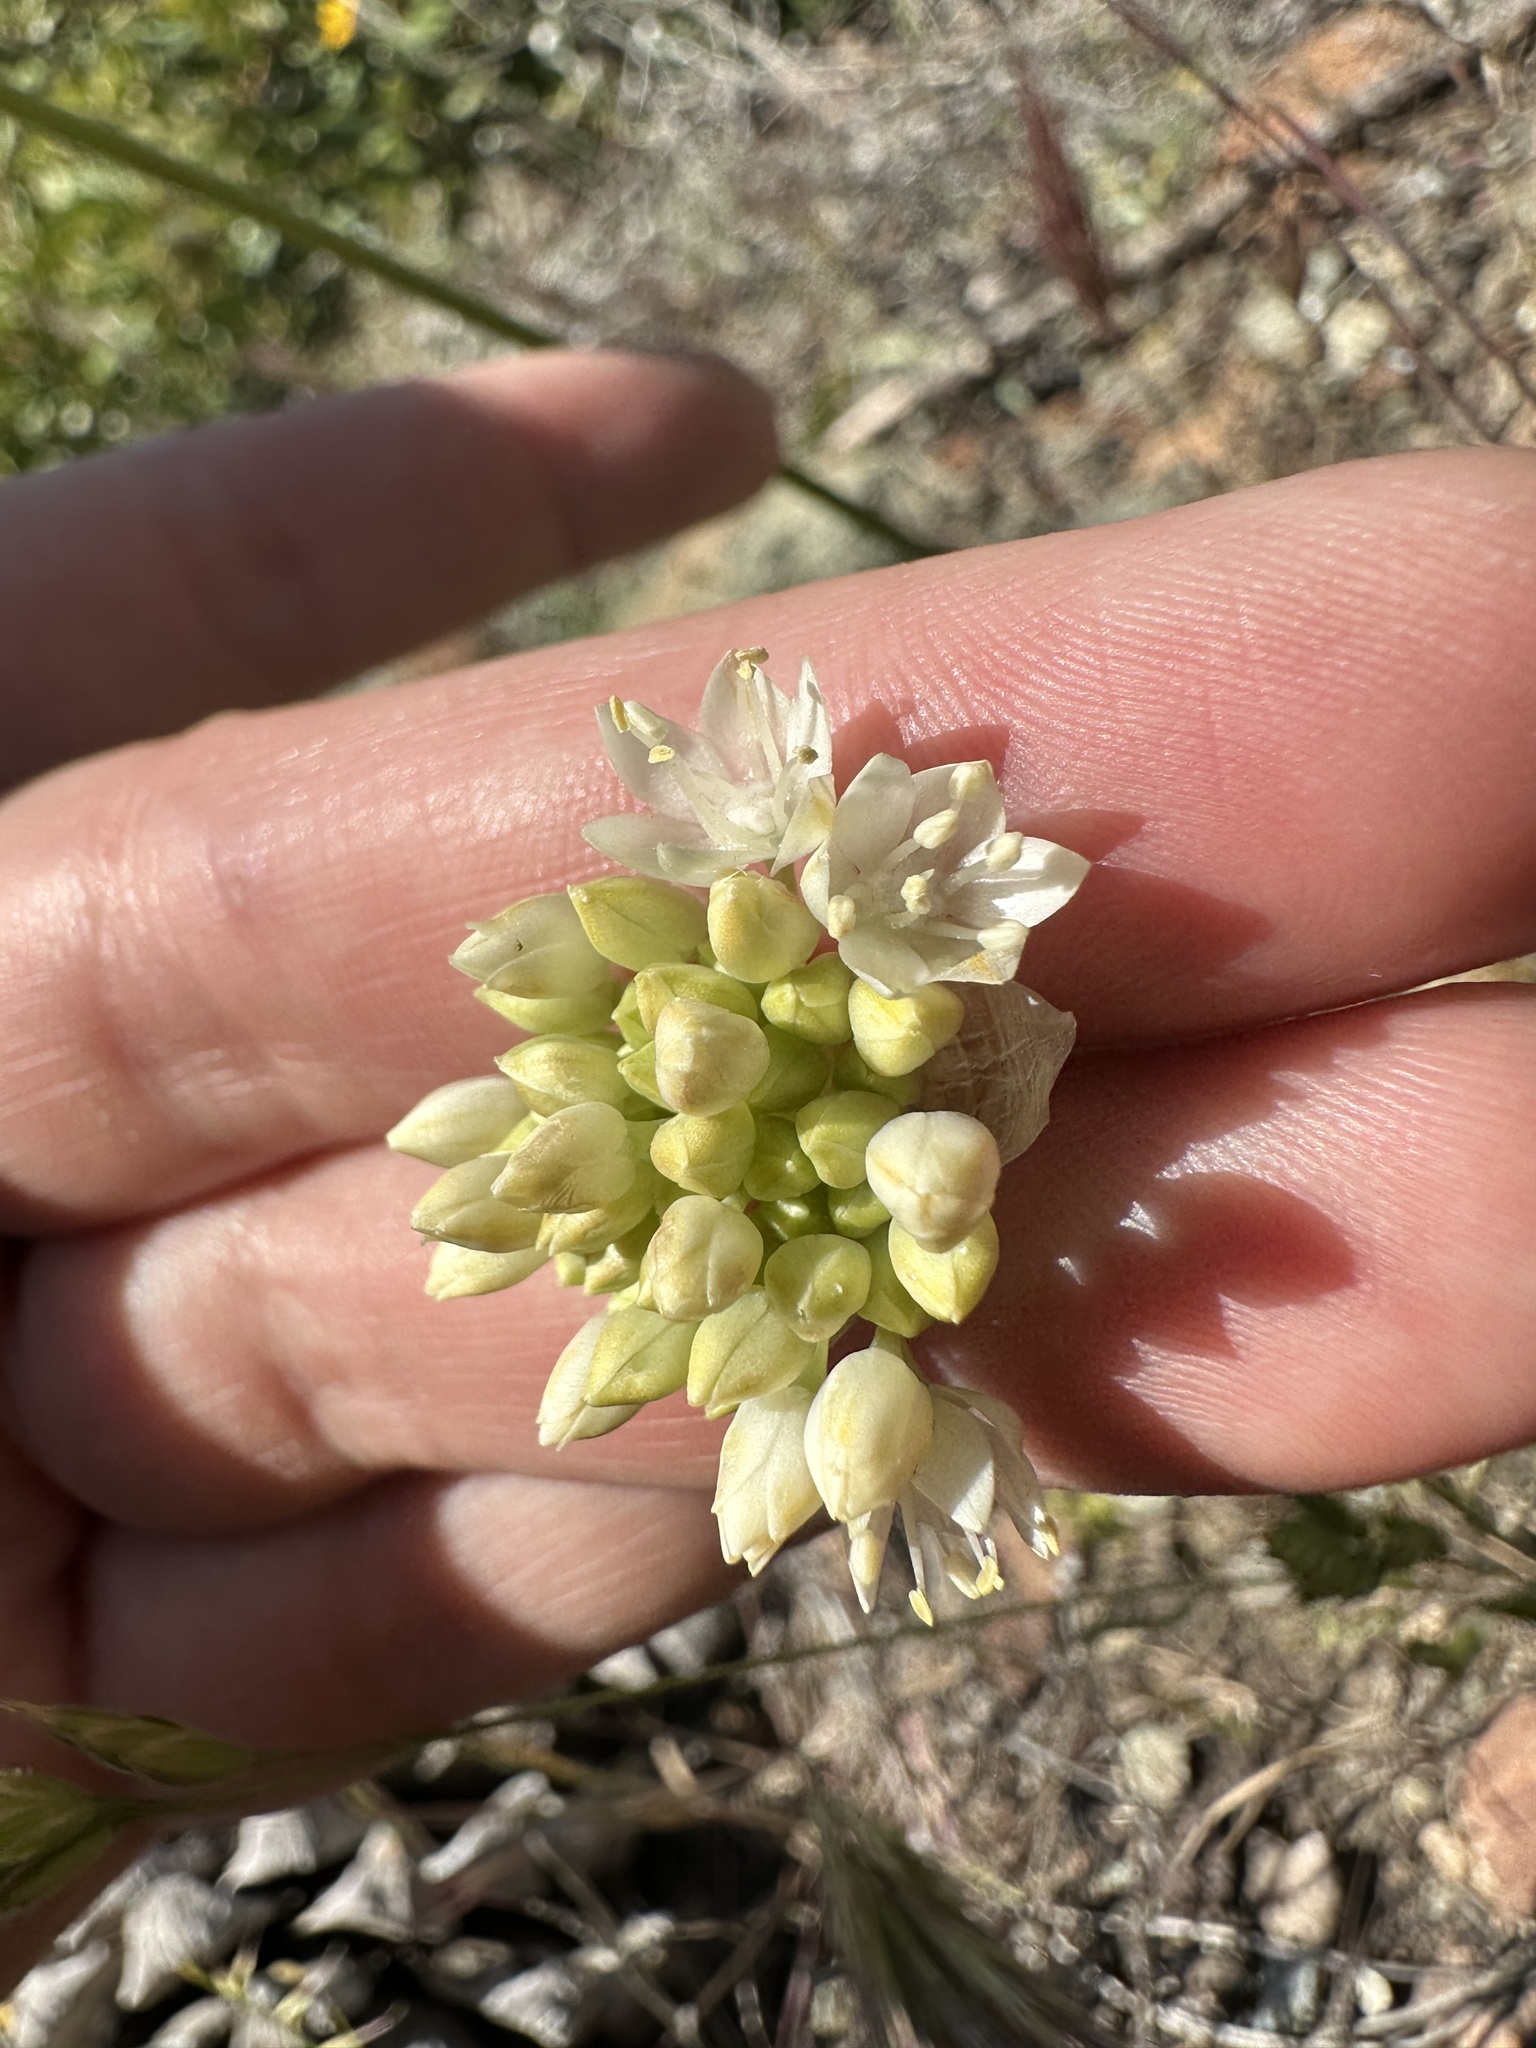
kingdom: Plantae
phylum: Tracheophyta
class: Liliopsida
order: Asparagales
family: Amaryllidaceae
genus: Allium
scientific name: Allium amplectens
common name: Narrow-leaved onion
